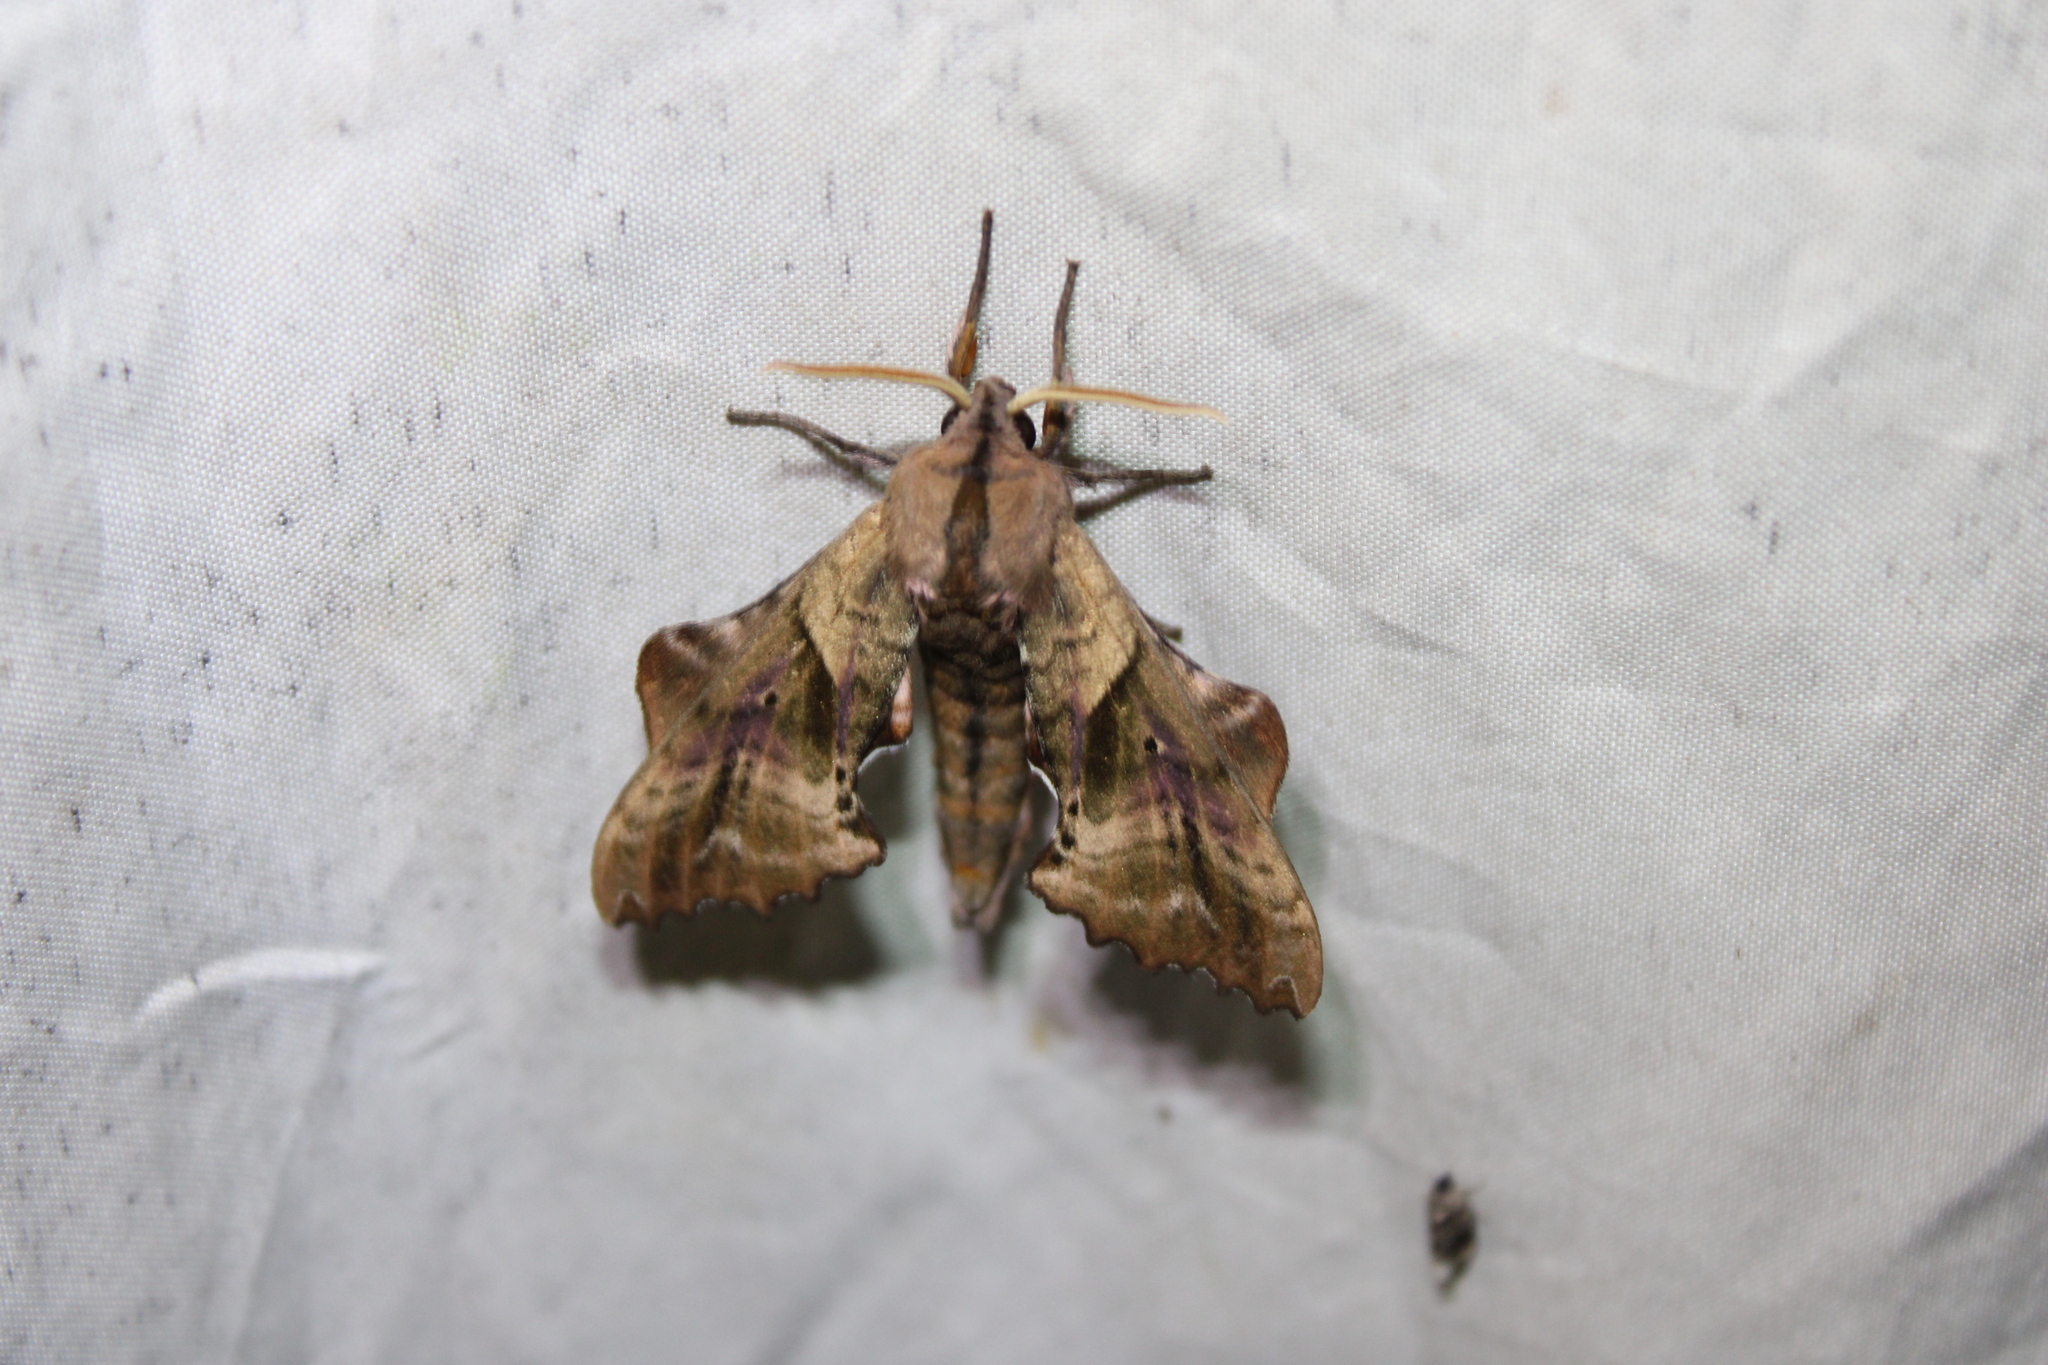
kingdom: Animalia
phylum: Arthropoda
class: Insecta
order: Lepidoptera
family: Sphingidae
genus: Paonias
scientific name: Paonias excaecata
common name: Blind-eyed sphinx
